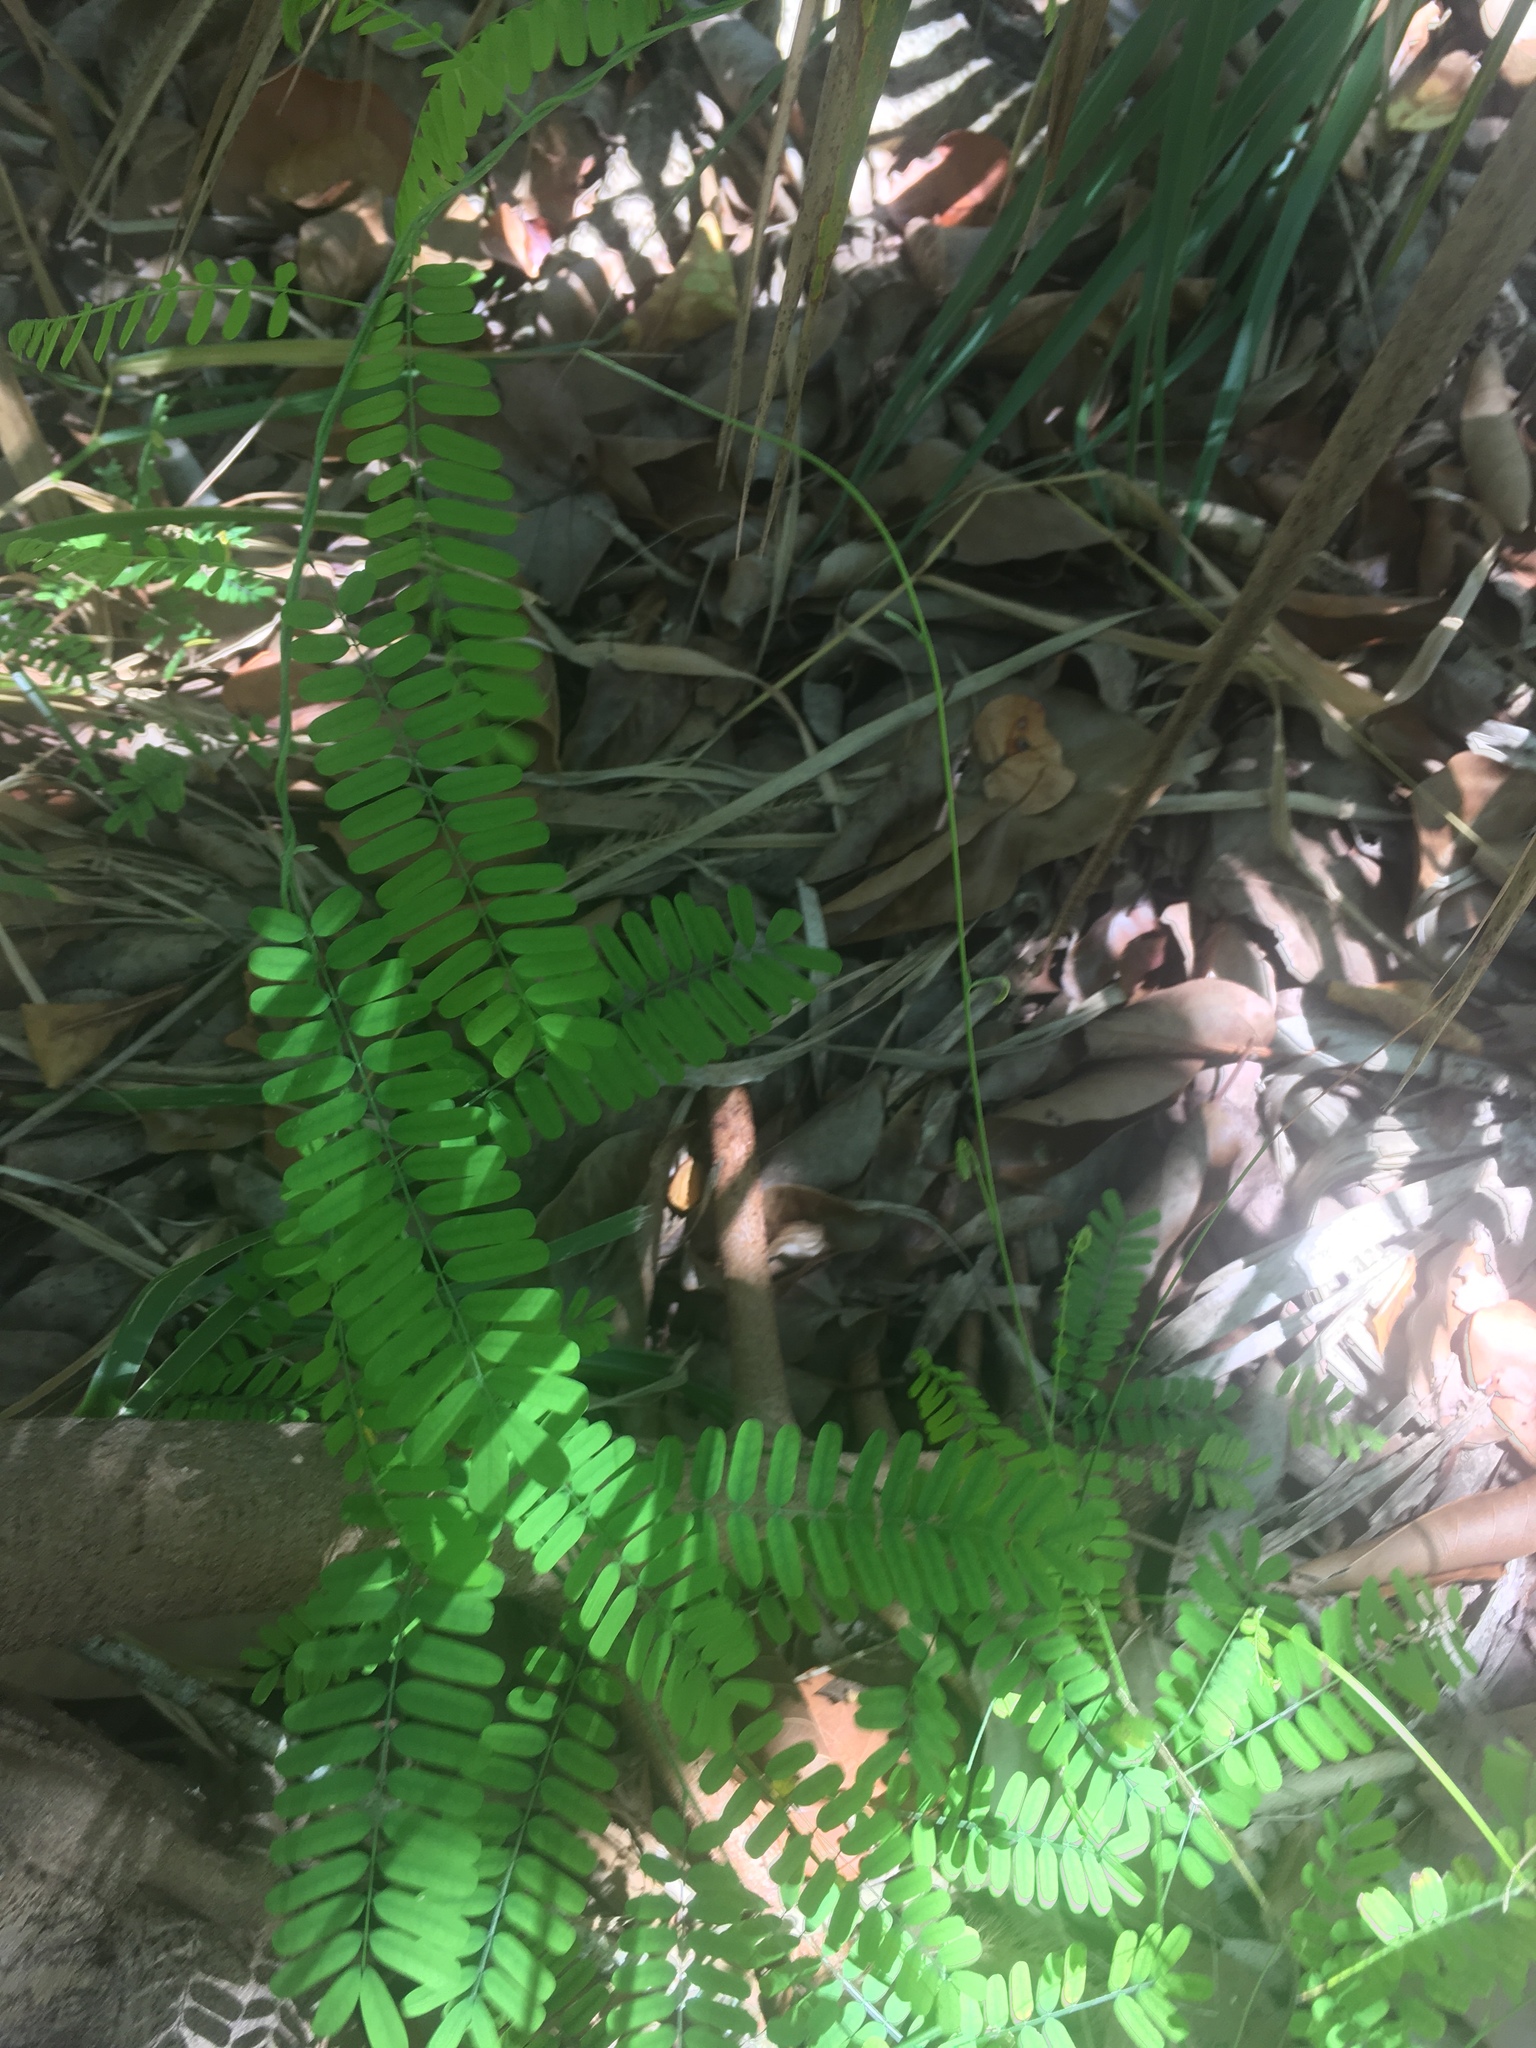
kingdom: Plantae
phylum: Tracheophyta
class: Magnoliopsida
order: Fabales
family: Fabaceae
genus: Abrus
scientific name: Abrus precatorius
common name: Rosarypea
